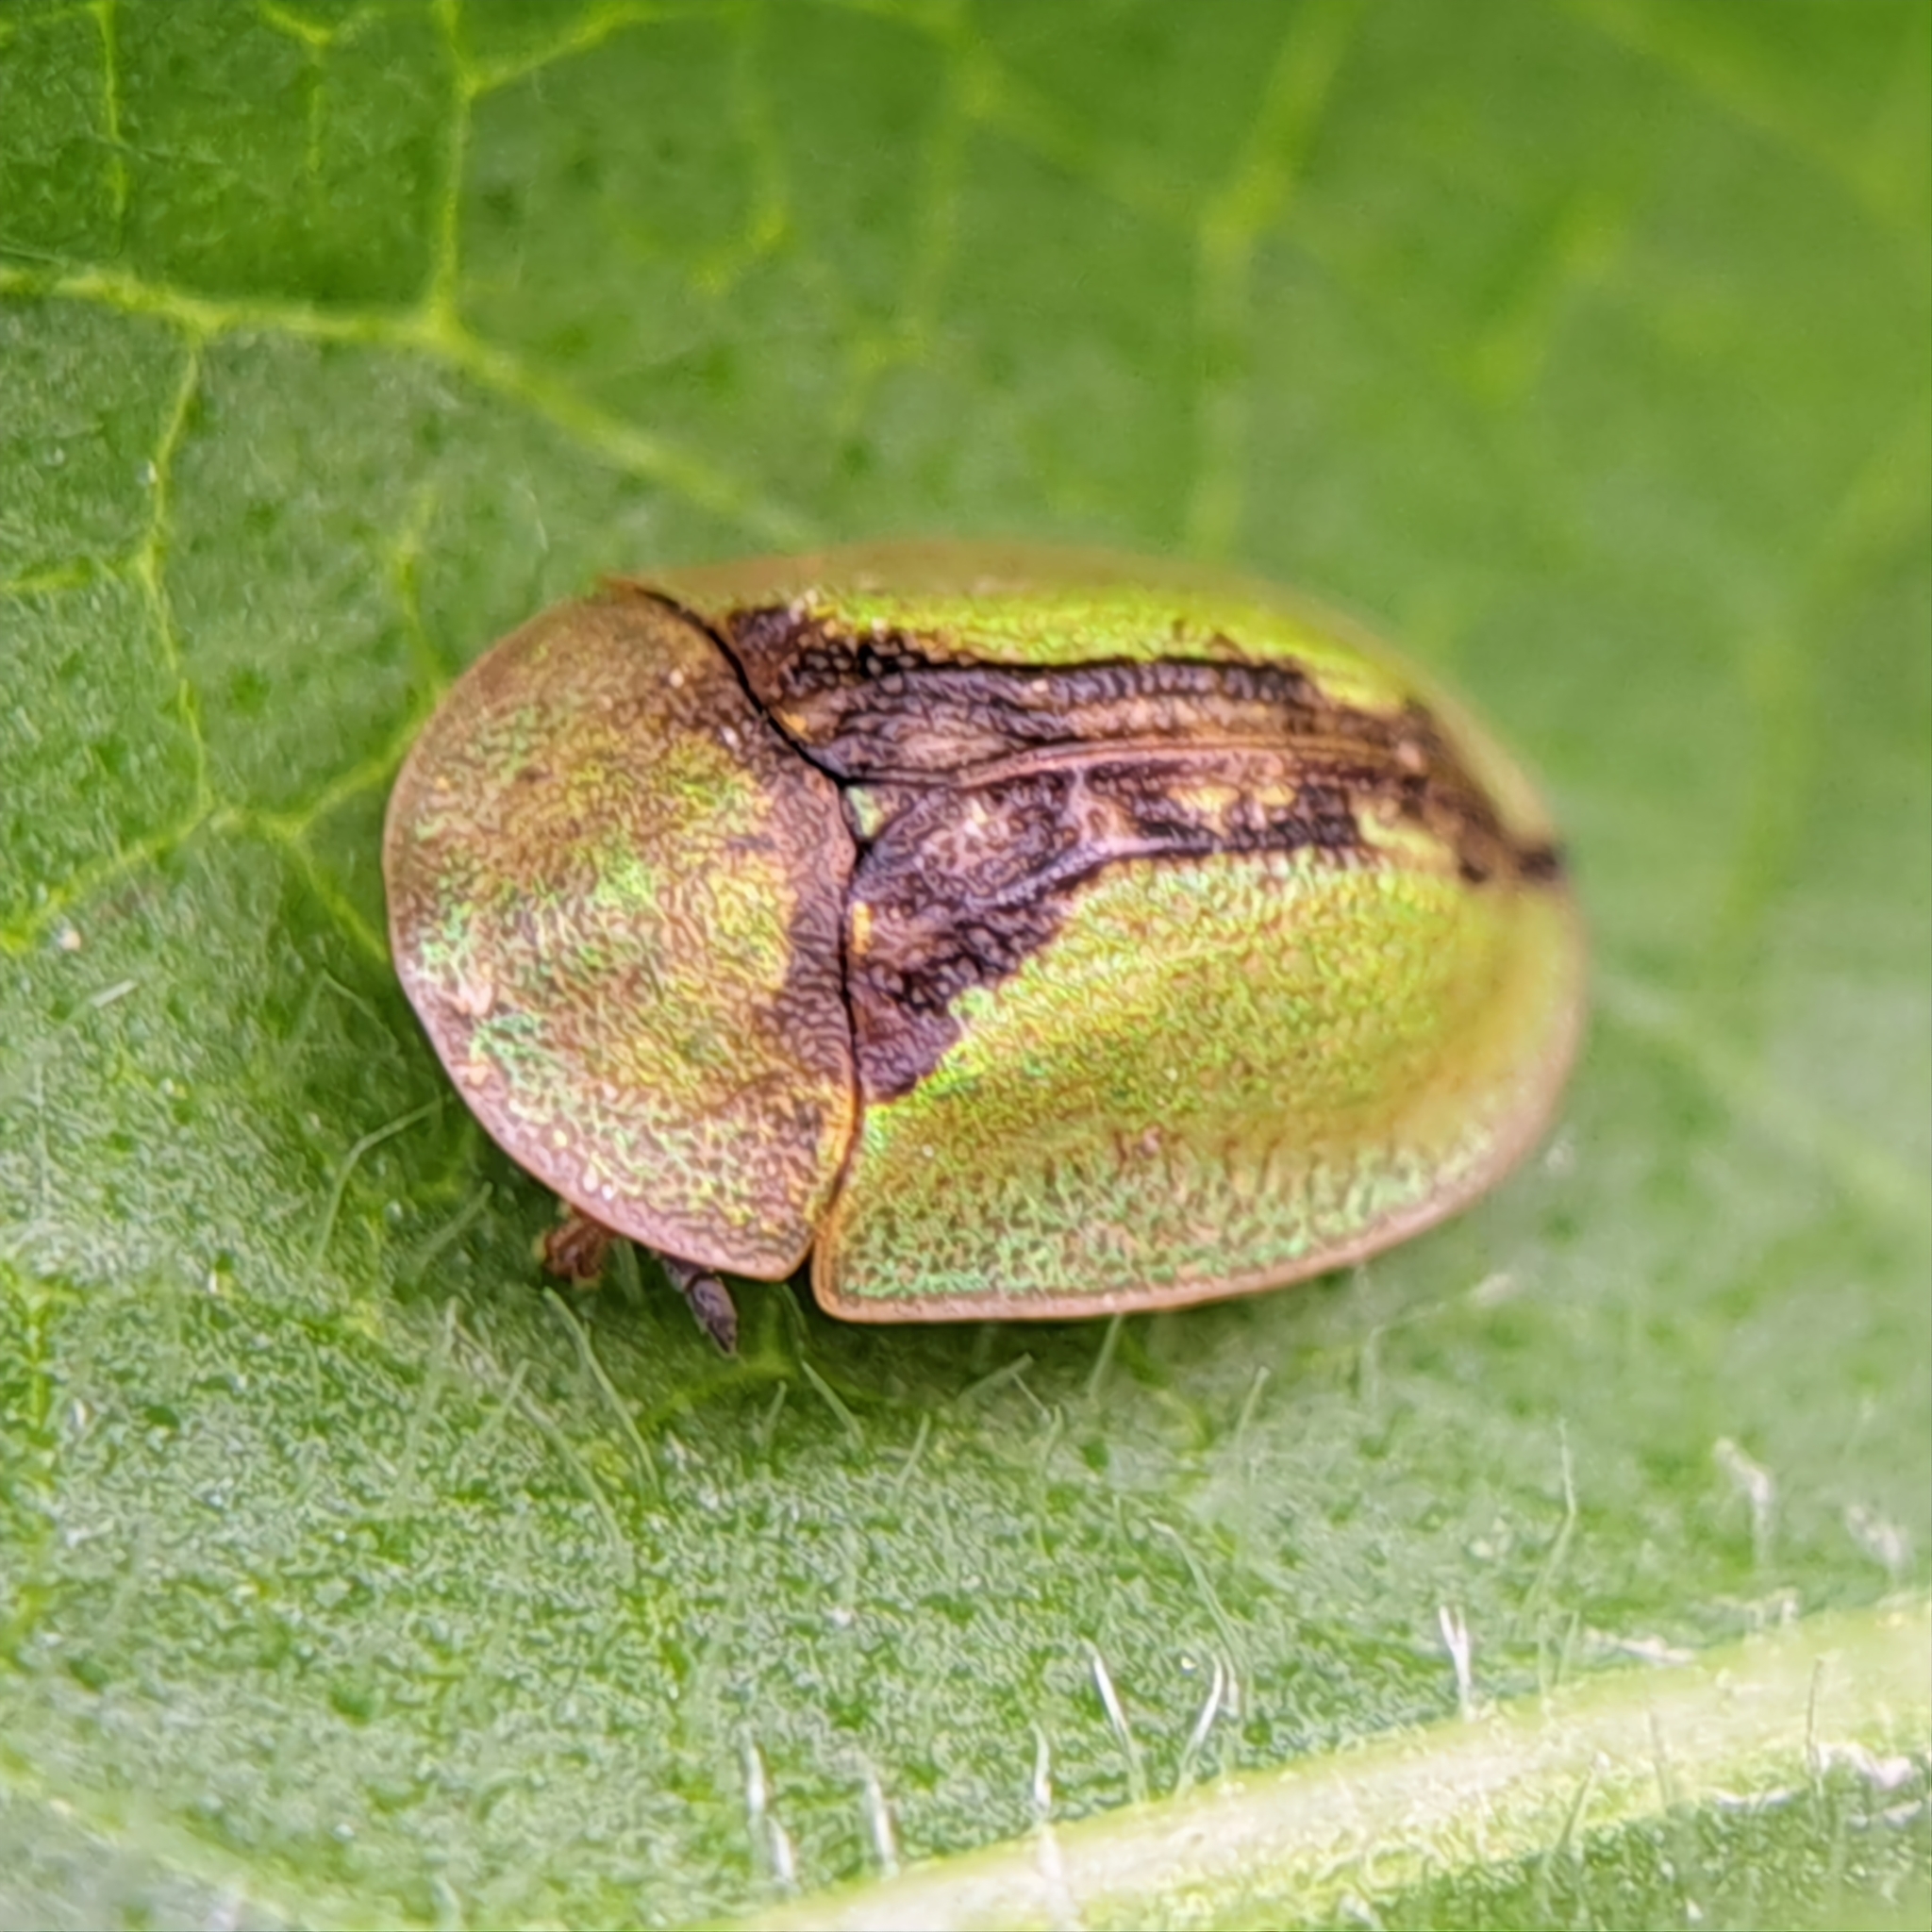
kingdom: Animalia
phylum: Arthropoda
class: Insecta
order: Coleoptera
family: Chrysomelidae
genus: Cassida
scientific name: Cassida vibex
